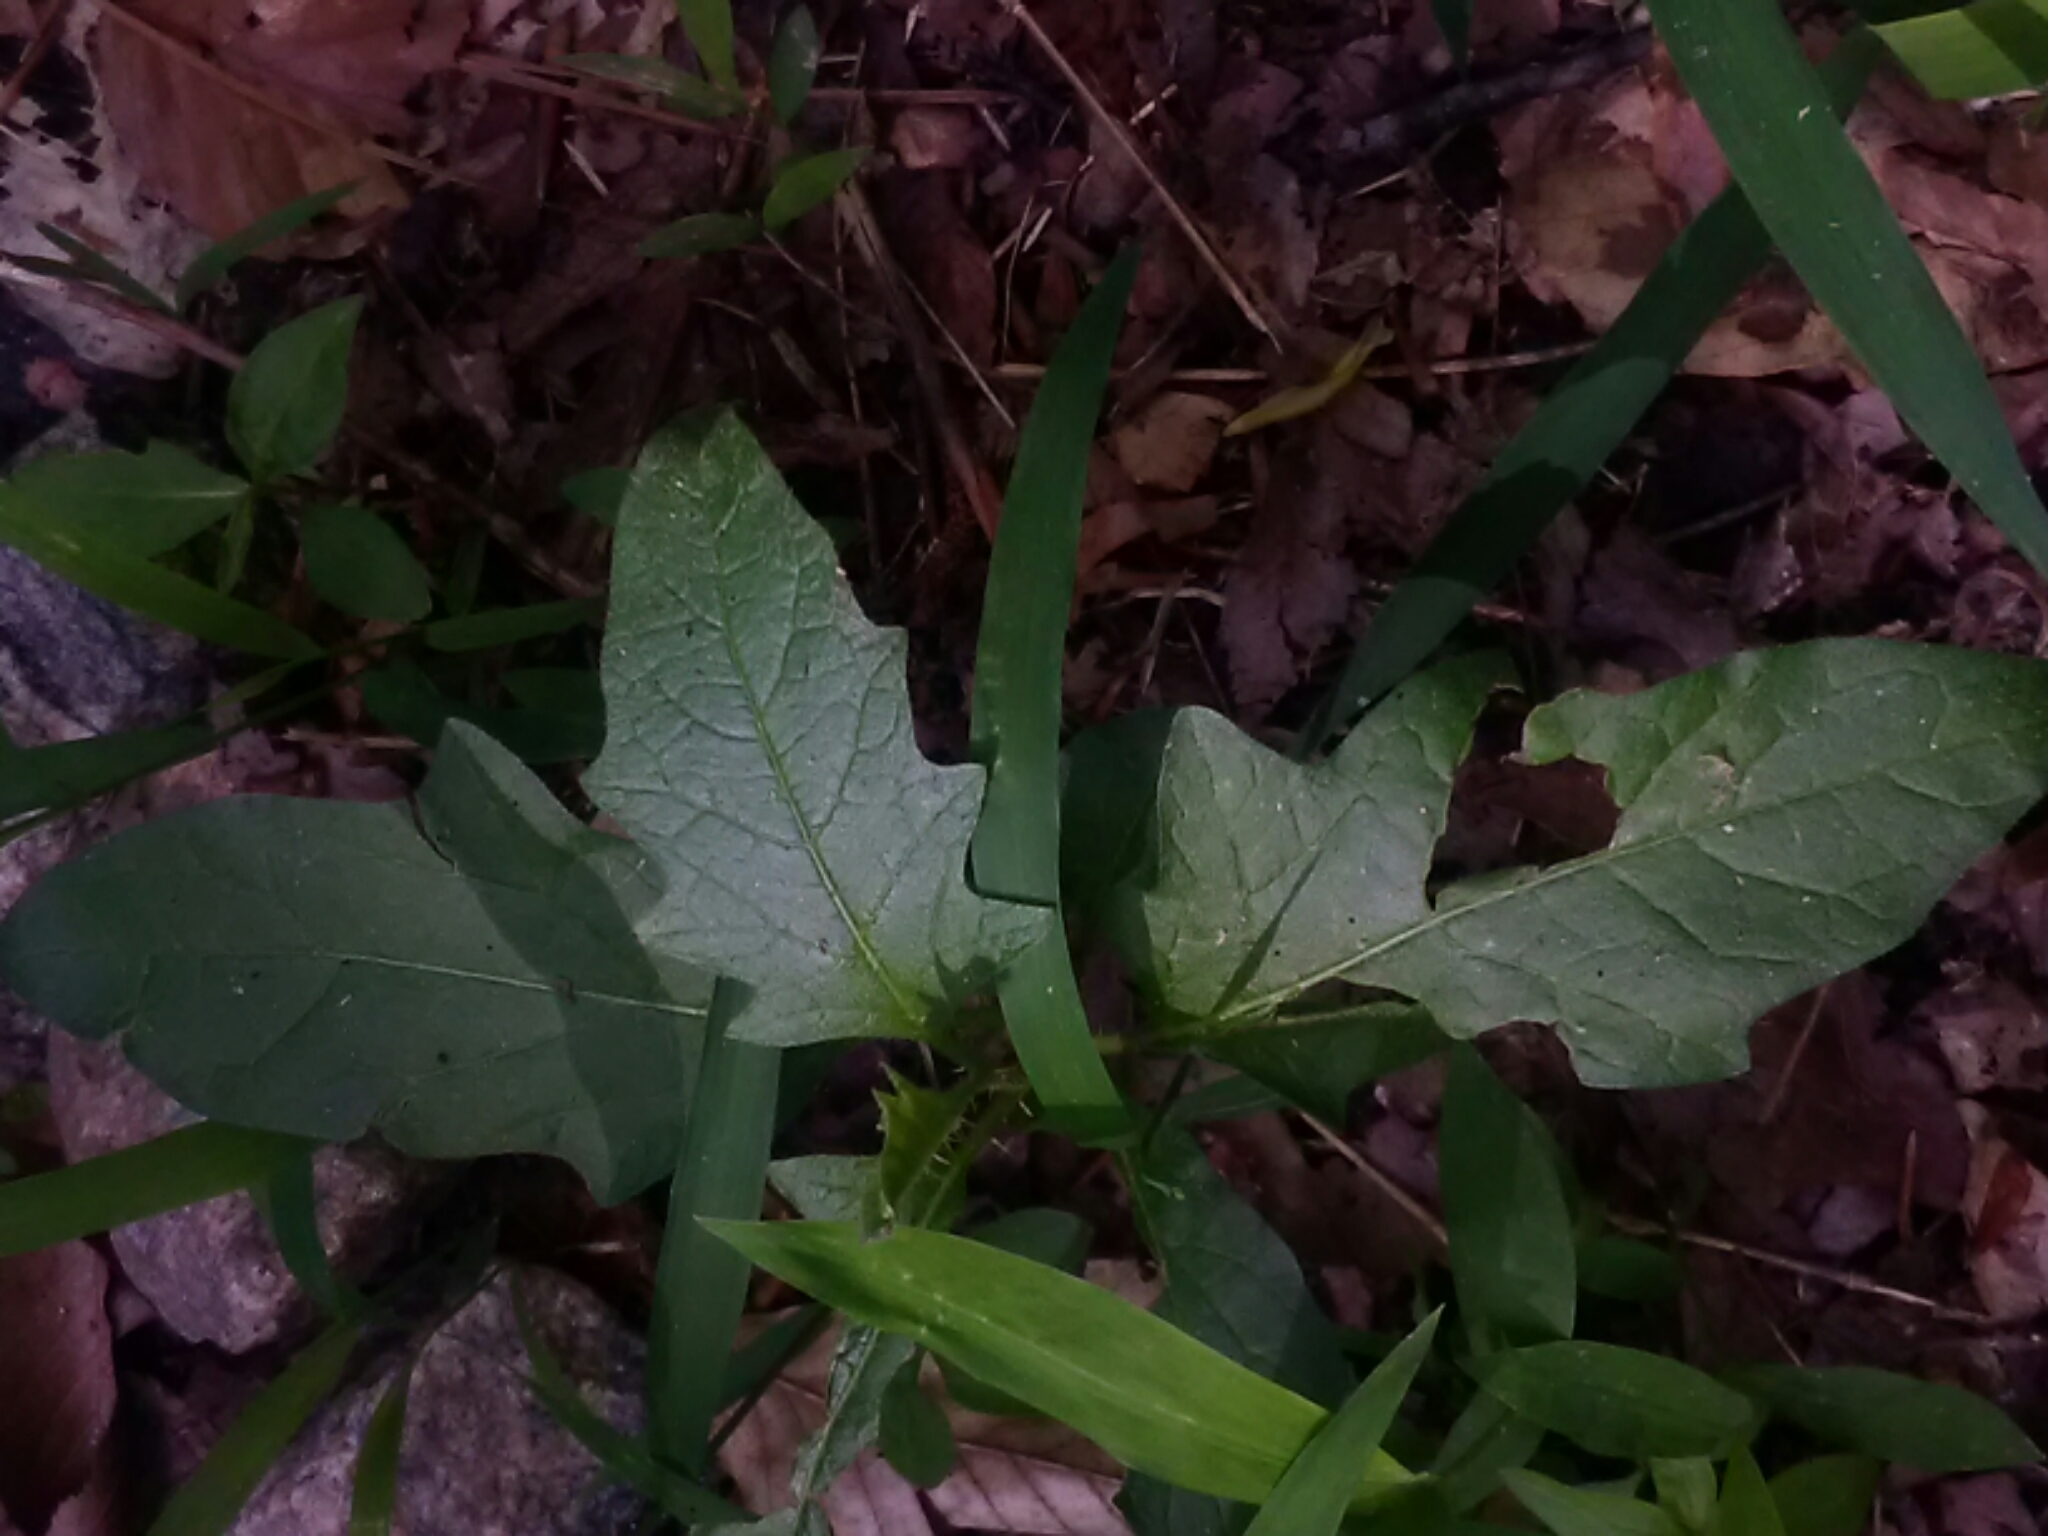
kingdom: Plantae
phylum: Tracheophyta
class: Magnoliopsida
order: Solanales
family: Solanaceae
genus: Solanum
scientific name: Solanum carolinense
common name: Horse-nettle
